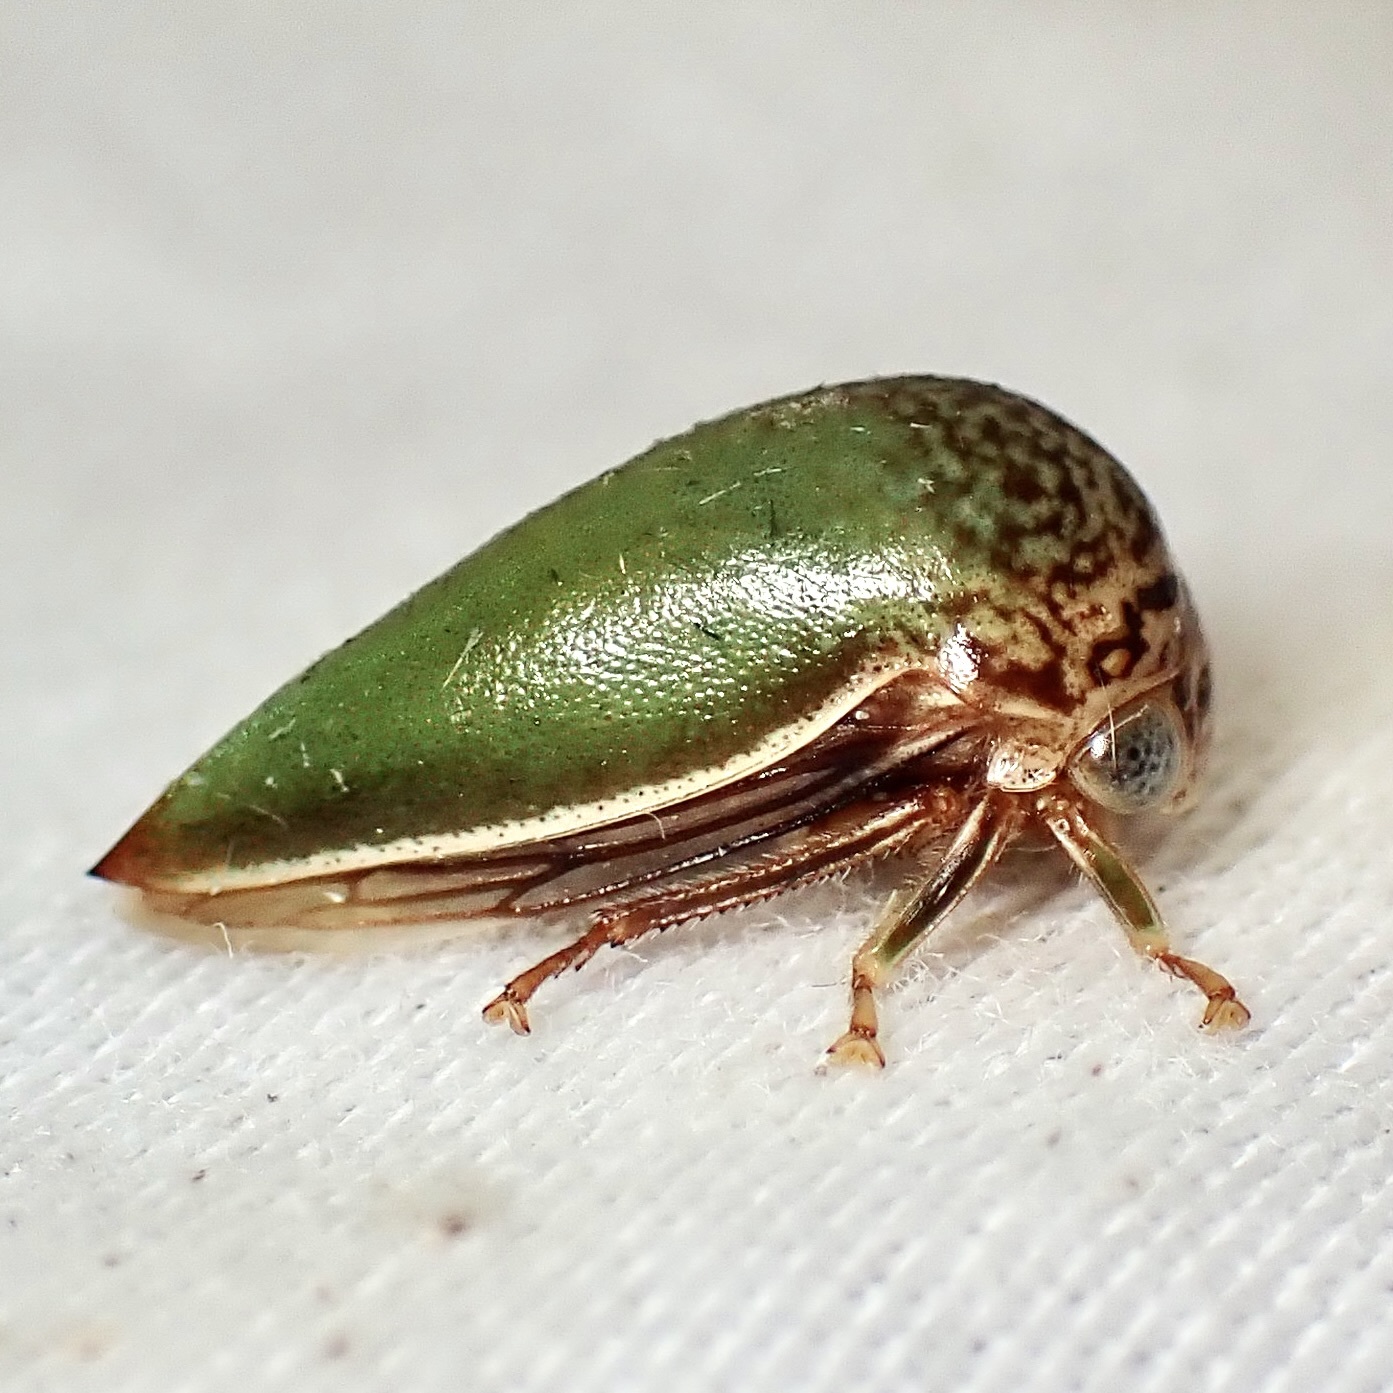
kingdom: Animalia
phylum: Arthropoda
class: Insecta
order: Hemiptera
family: Membracidae
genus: Stictopelta
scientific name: Stictopelta marmorata
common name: Treehopper
